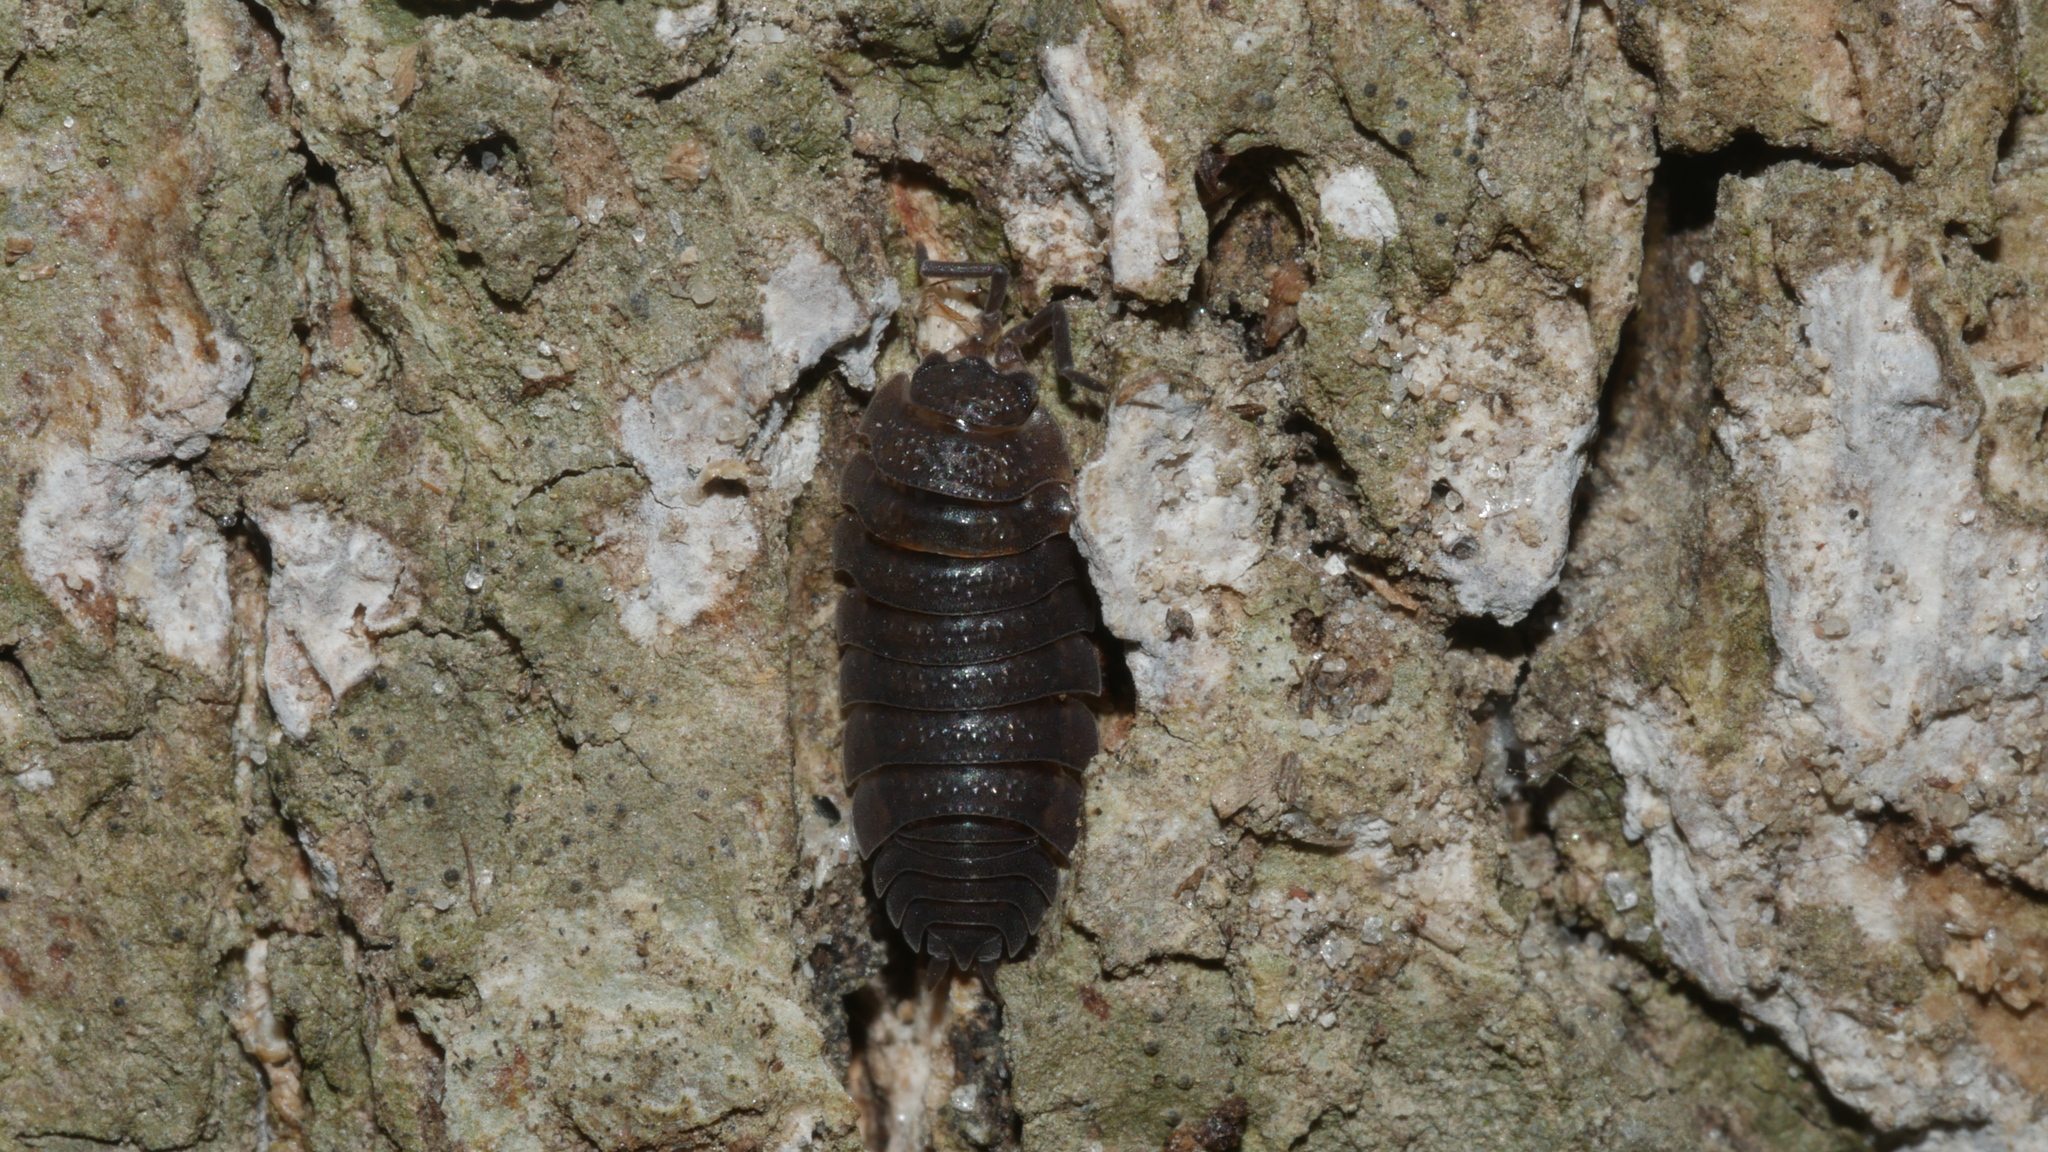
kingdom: Animalia
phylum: Arthropoda
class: Malacostraca
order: Isopoda
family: Porcellionidae
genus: Porcellio
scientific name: Porcellio scaber
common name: Common rough woodlouse
